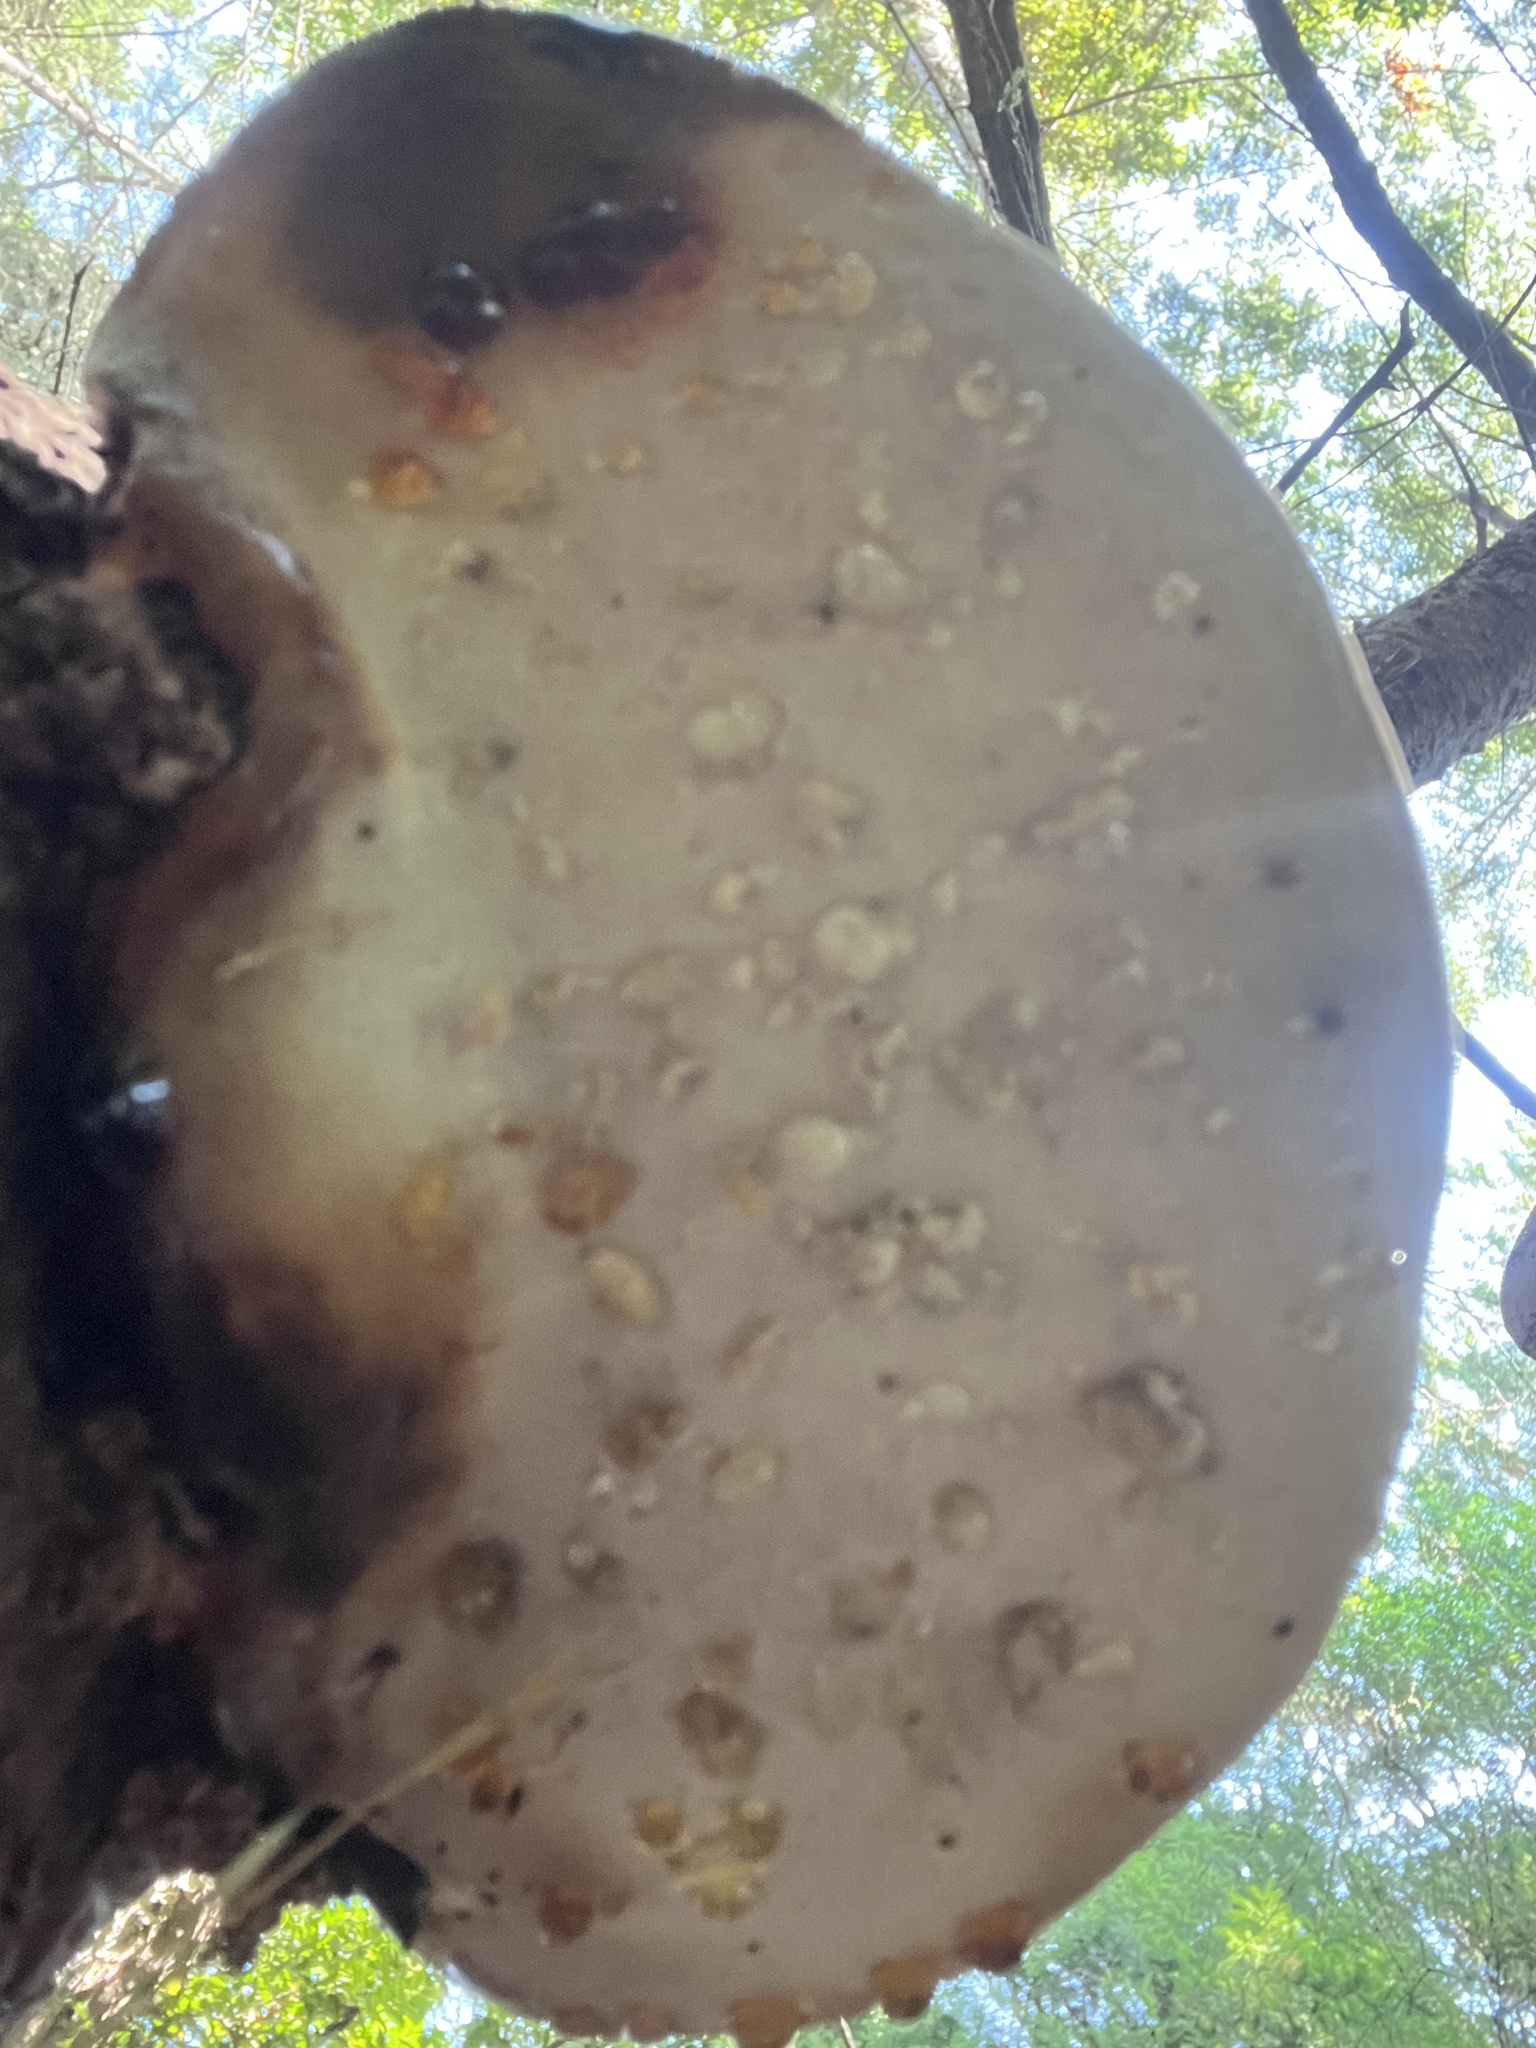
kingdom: Fungi
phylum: Basidiomycota
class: Agaricomycetes
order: Polyporales
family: Fomitopsidaceae
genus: Fomitopsis
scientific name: Fomitopsis mounceae
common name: Northern red belt
